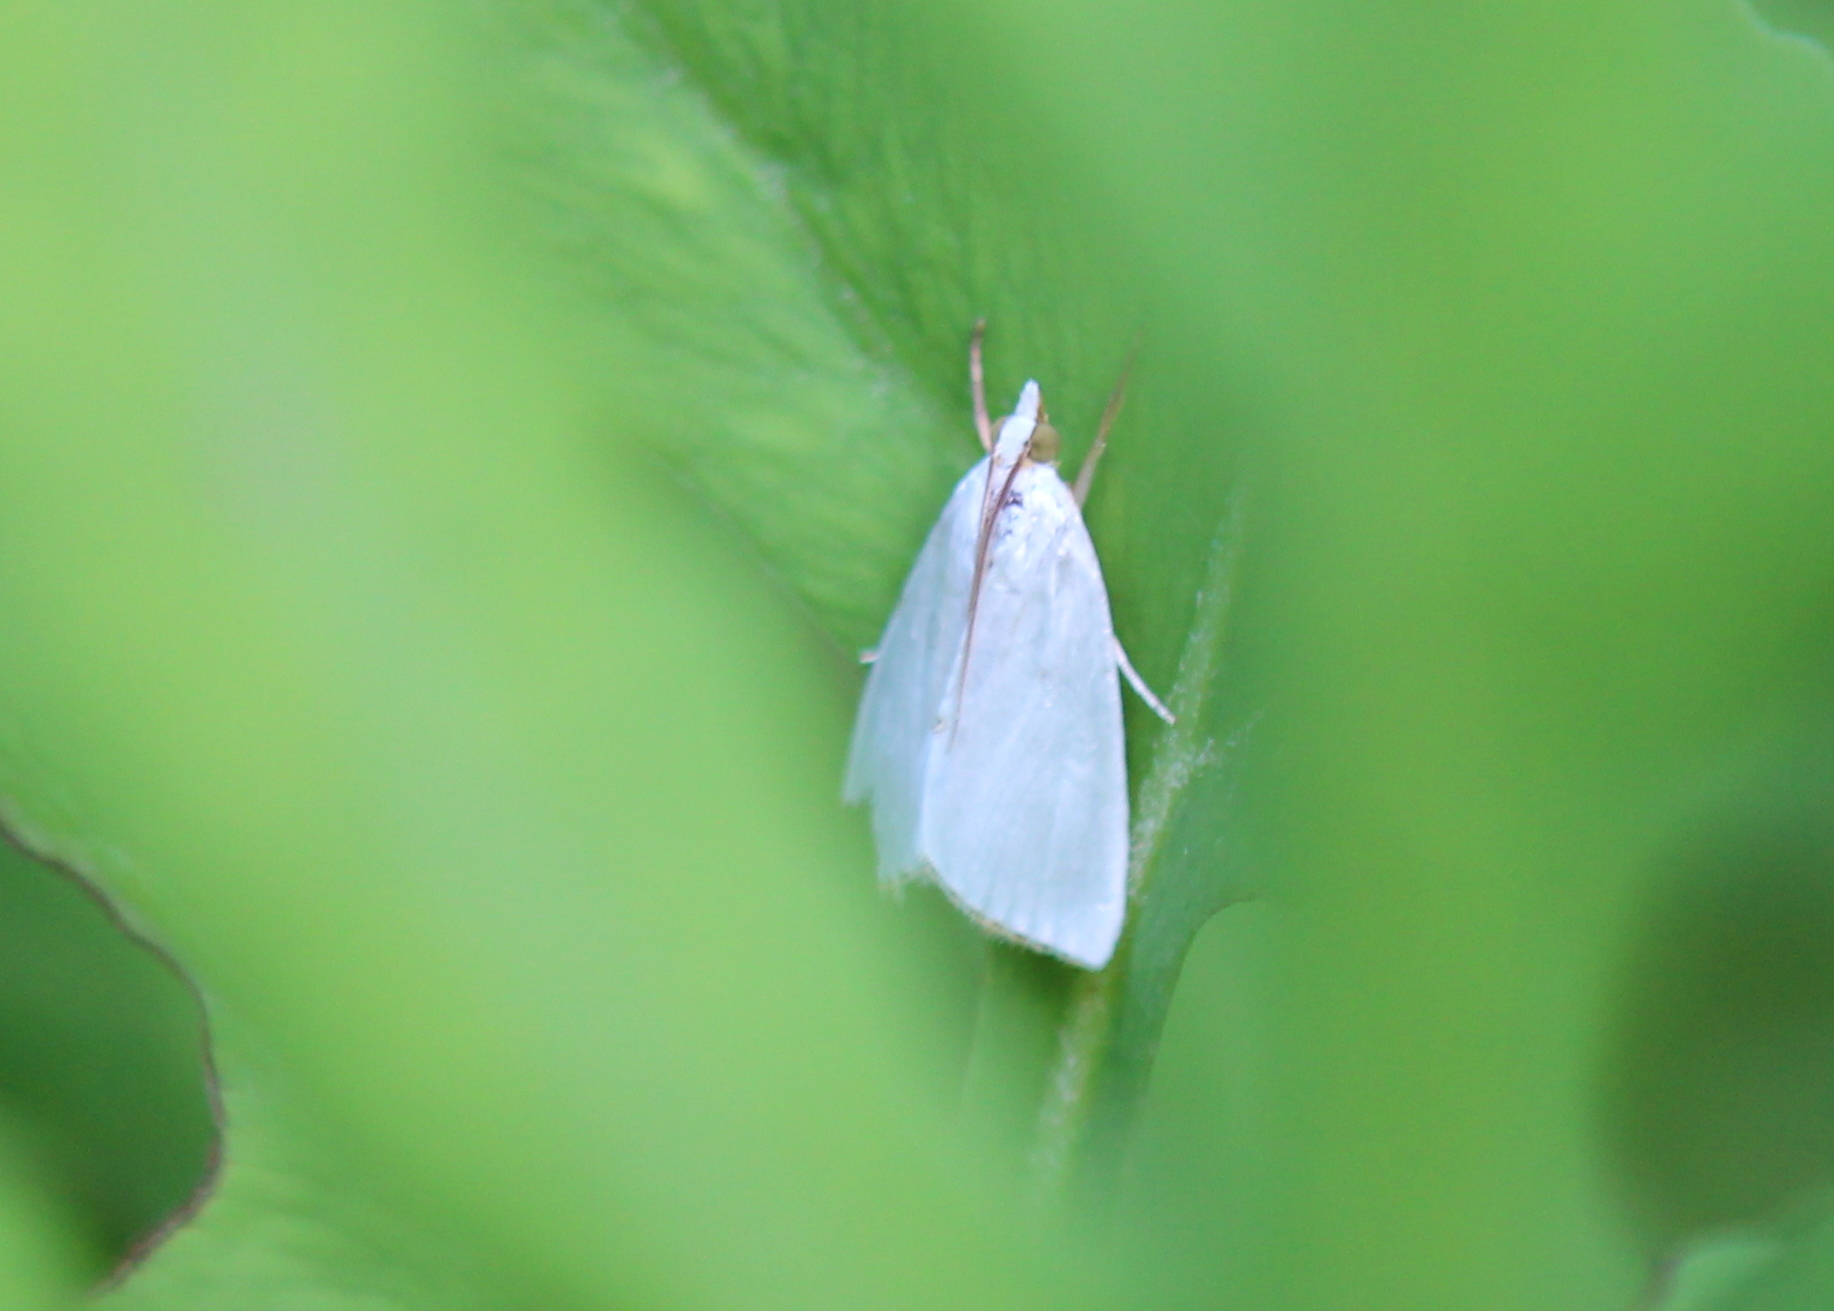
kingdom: Animalia
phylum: Arthropoda
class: Insecta
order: Lepidoptera
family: Crambidae
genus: Argyria
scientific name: Argyria nivalis
